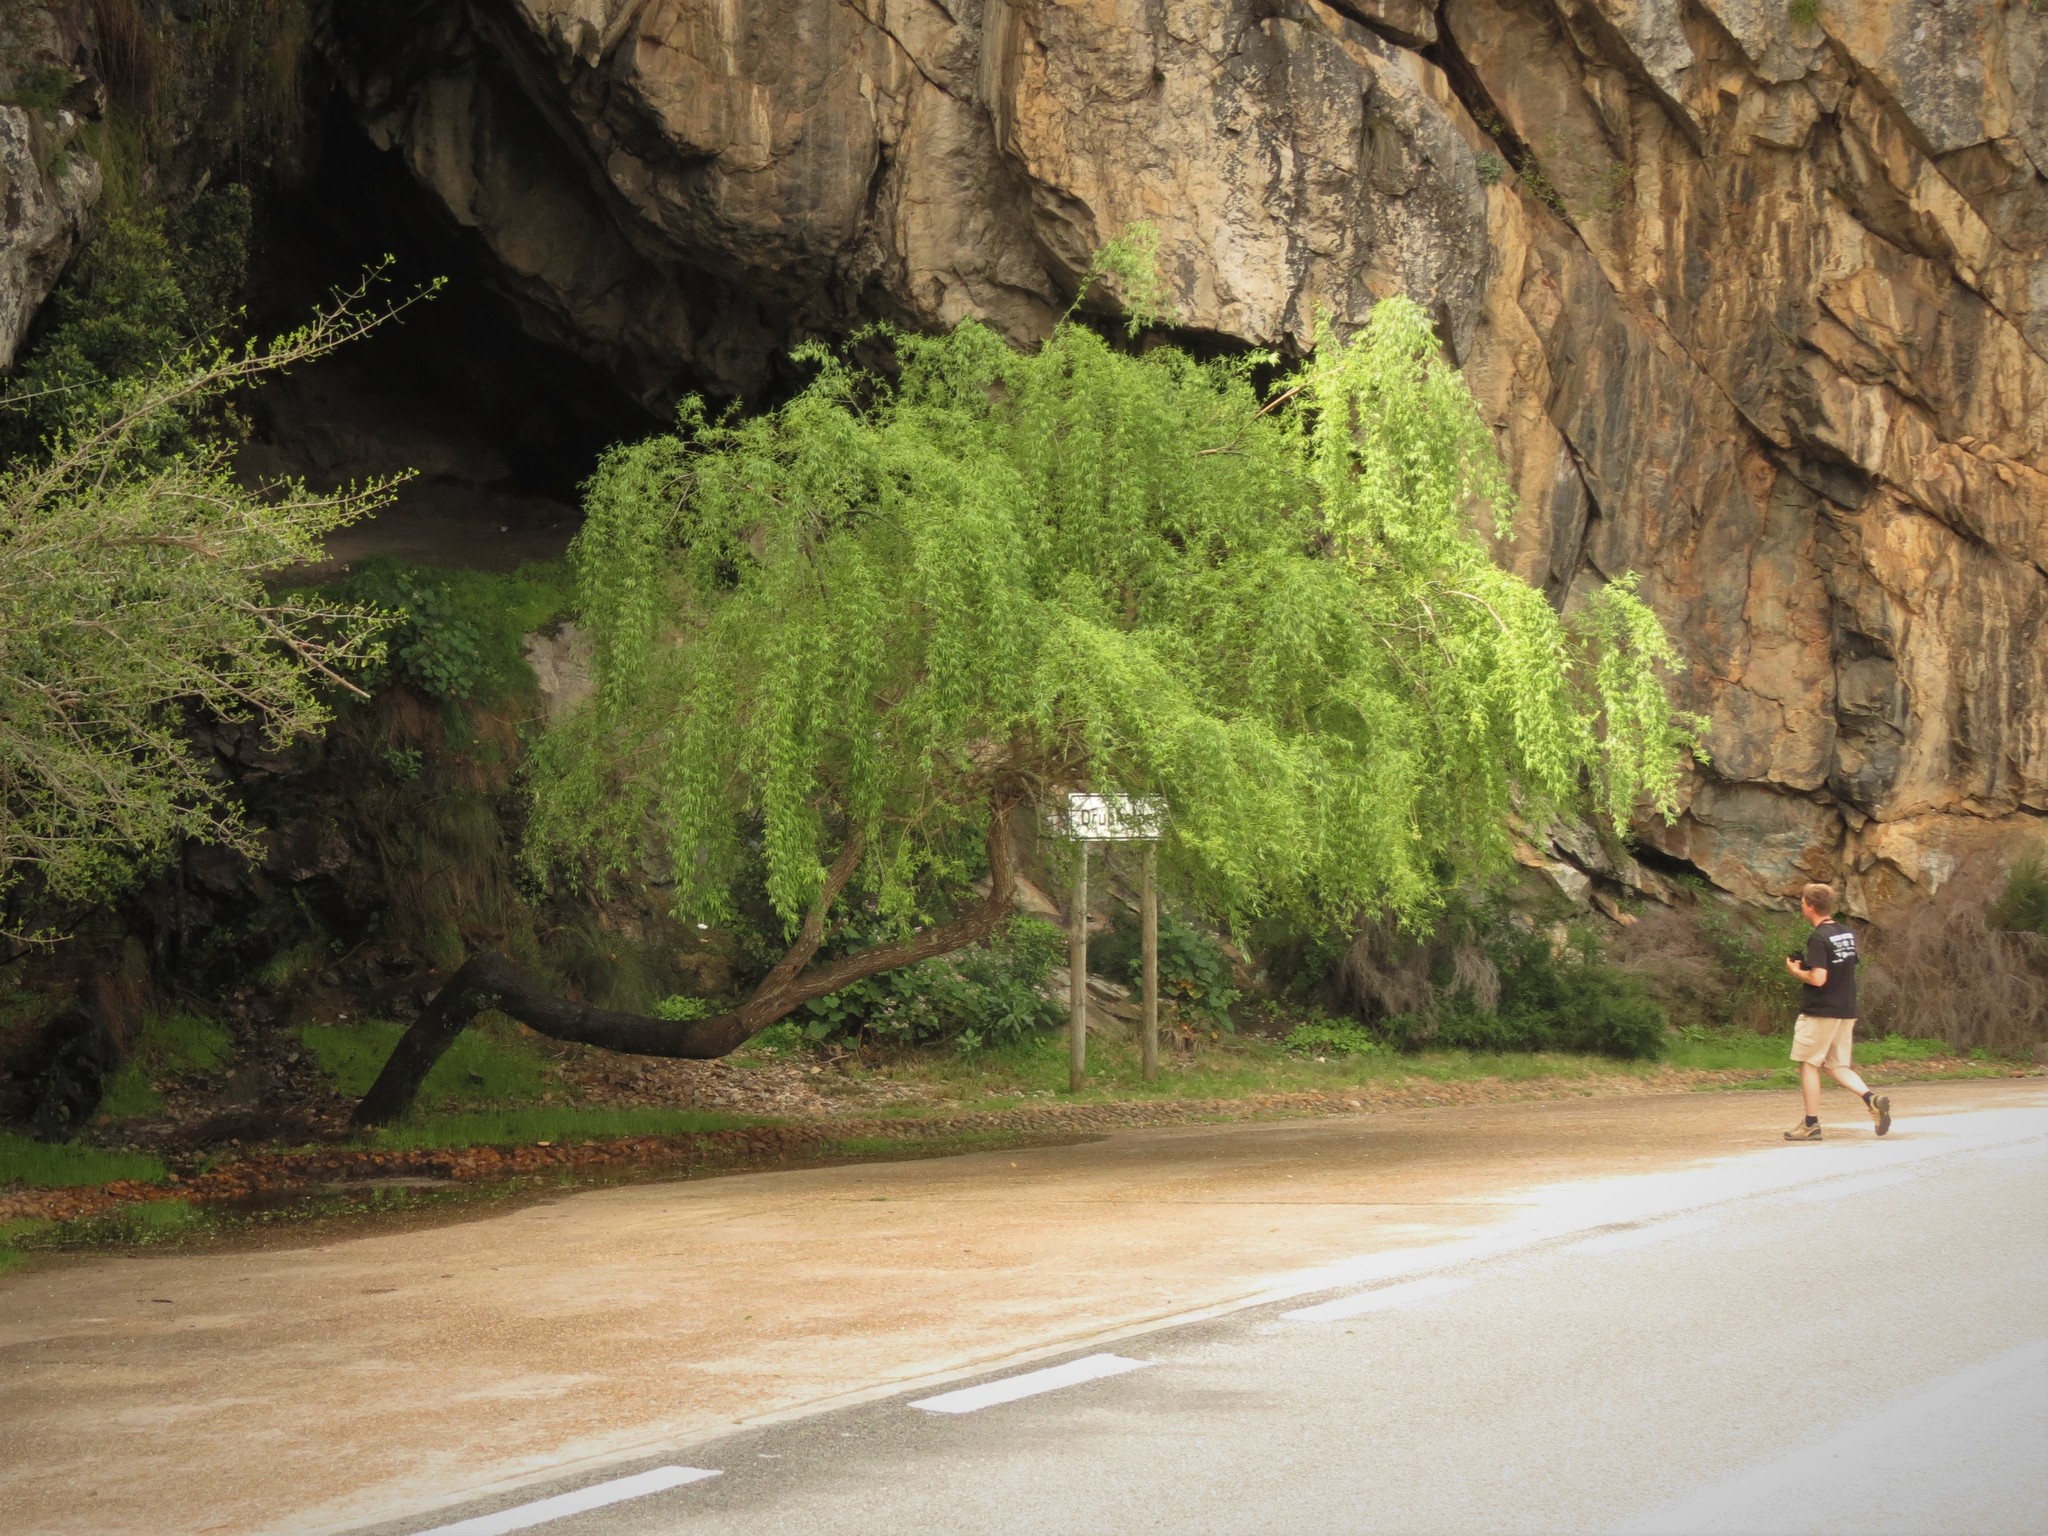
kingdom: Plantae
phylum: Tracheophyta
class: Magnoliopsida
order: Malpighiales
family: Salicaceae
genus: Salix
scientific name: Salix mucronata
